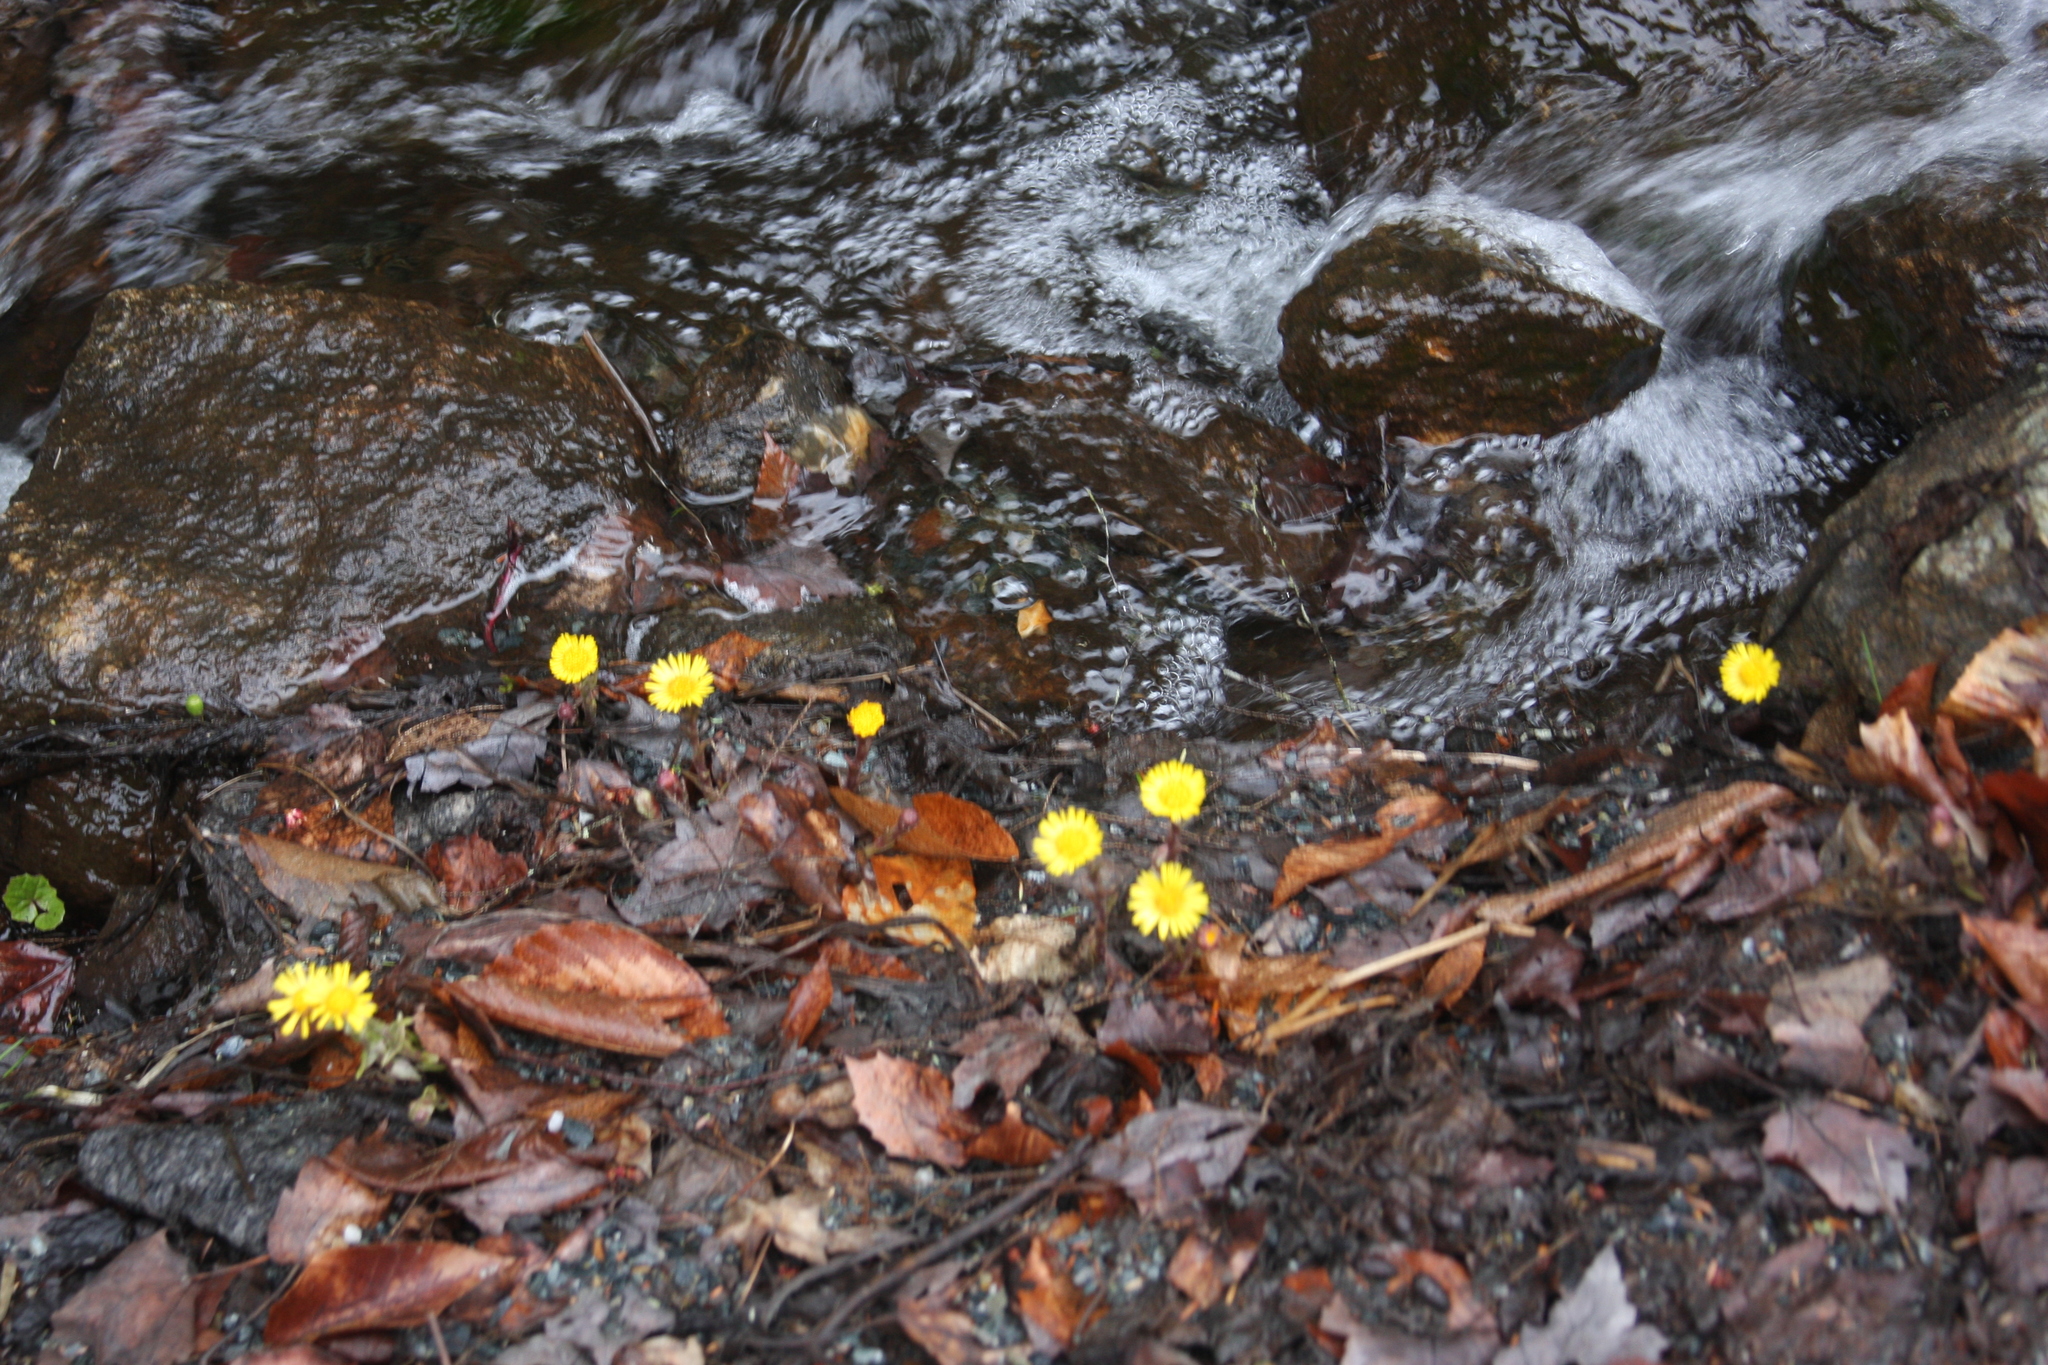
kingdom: Plantae
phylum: Tracheophyta
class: Magnoliopsida
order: Asterales
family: Asteraceae
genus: Tussilago
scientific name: Tussilago farfara
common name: Coltsfoot
